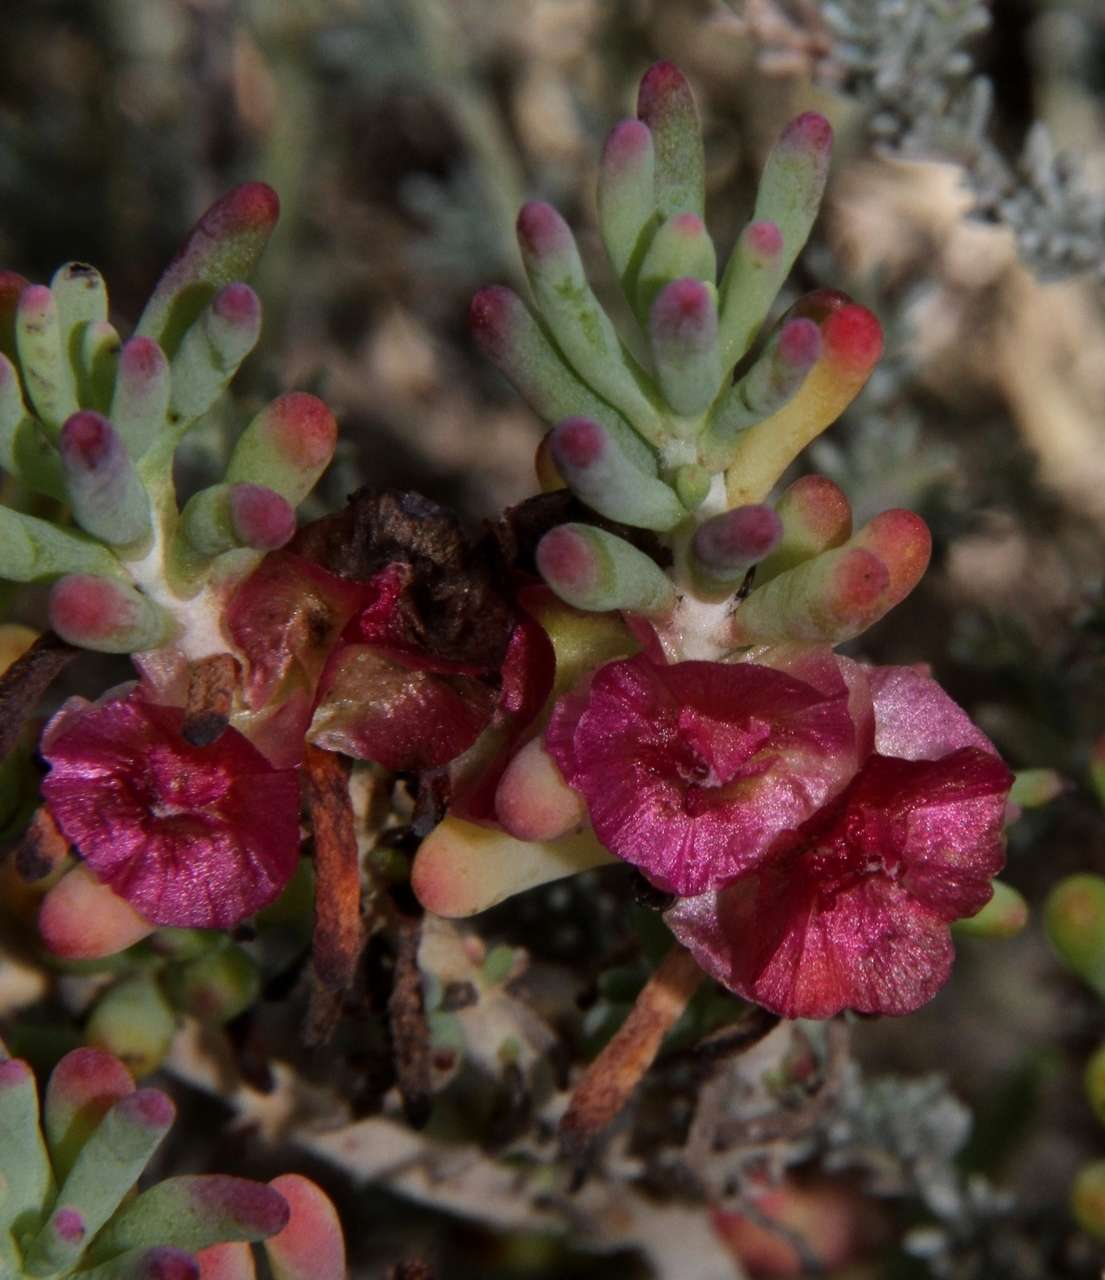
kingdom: Plantae
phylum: Tracheophyta
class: Magnoliopsida
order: Caryophyllales
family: Amaranthaceae
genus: Maireana
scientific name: Maireana erioclada
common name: Rosy bluebush
